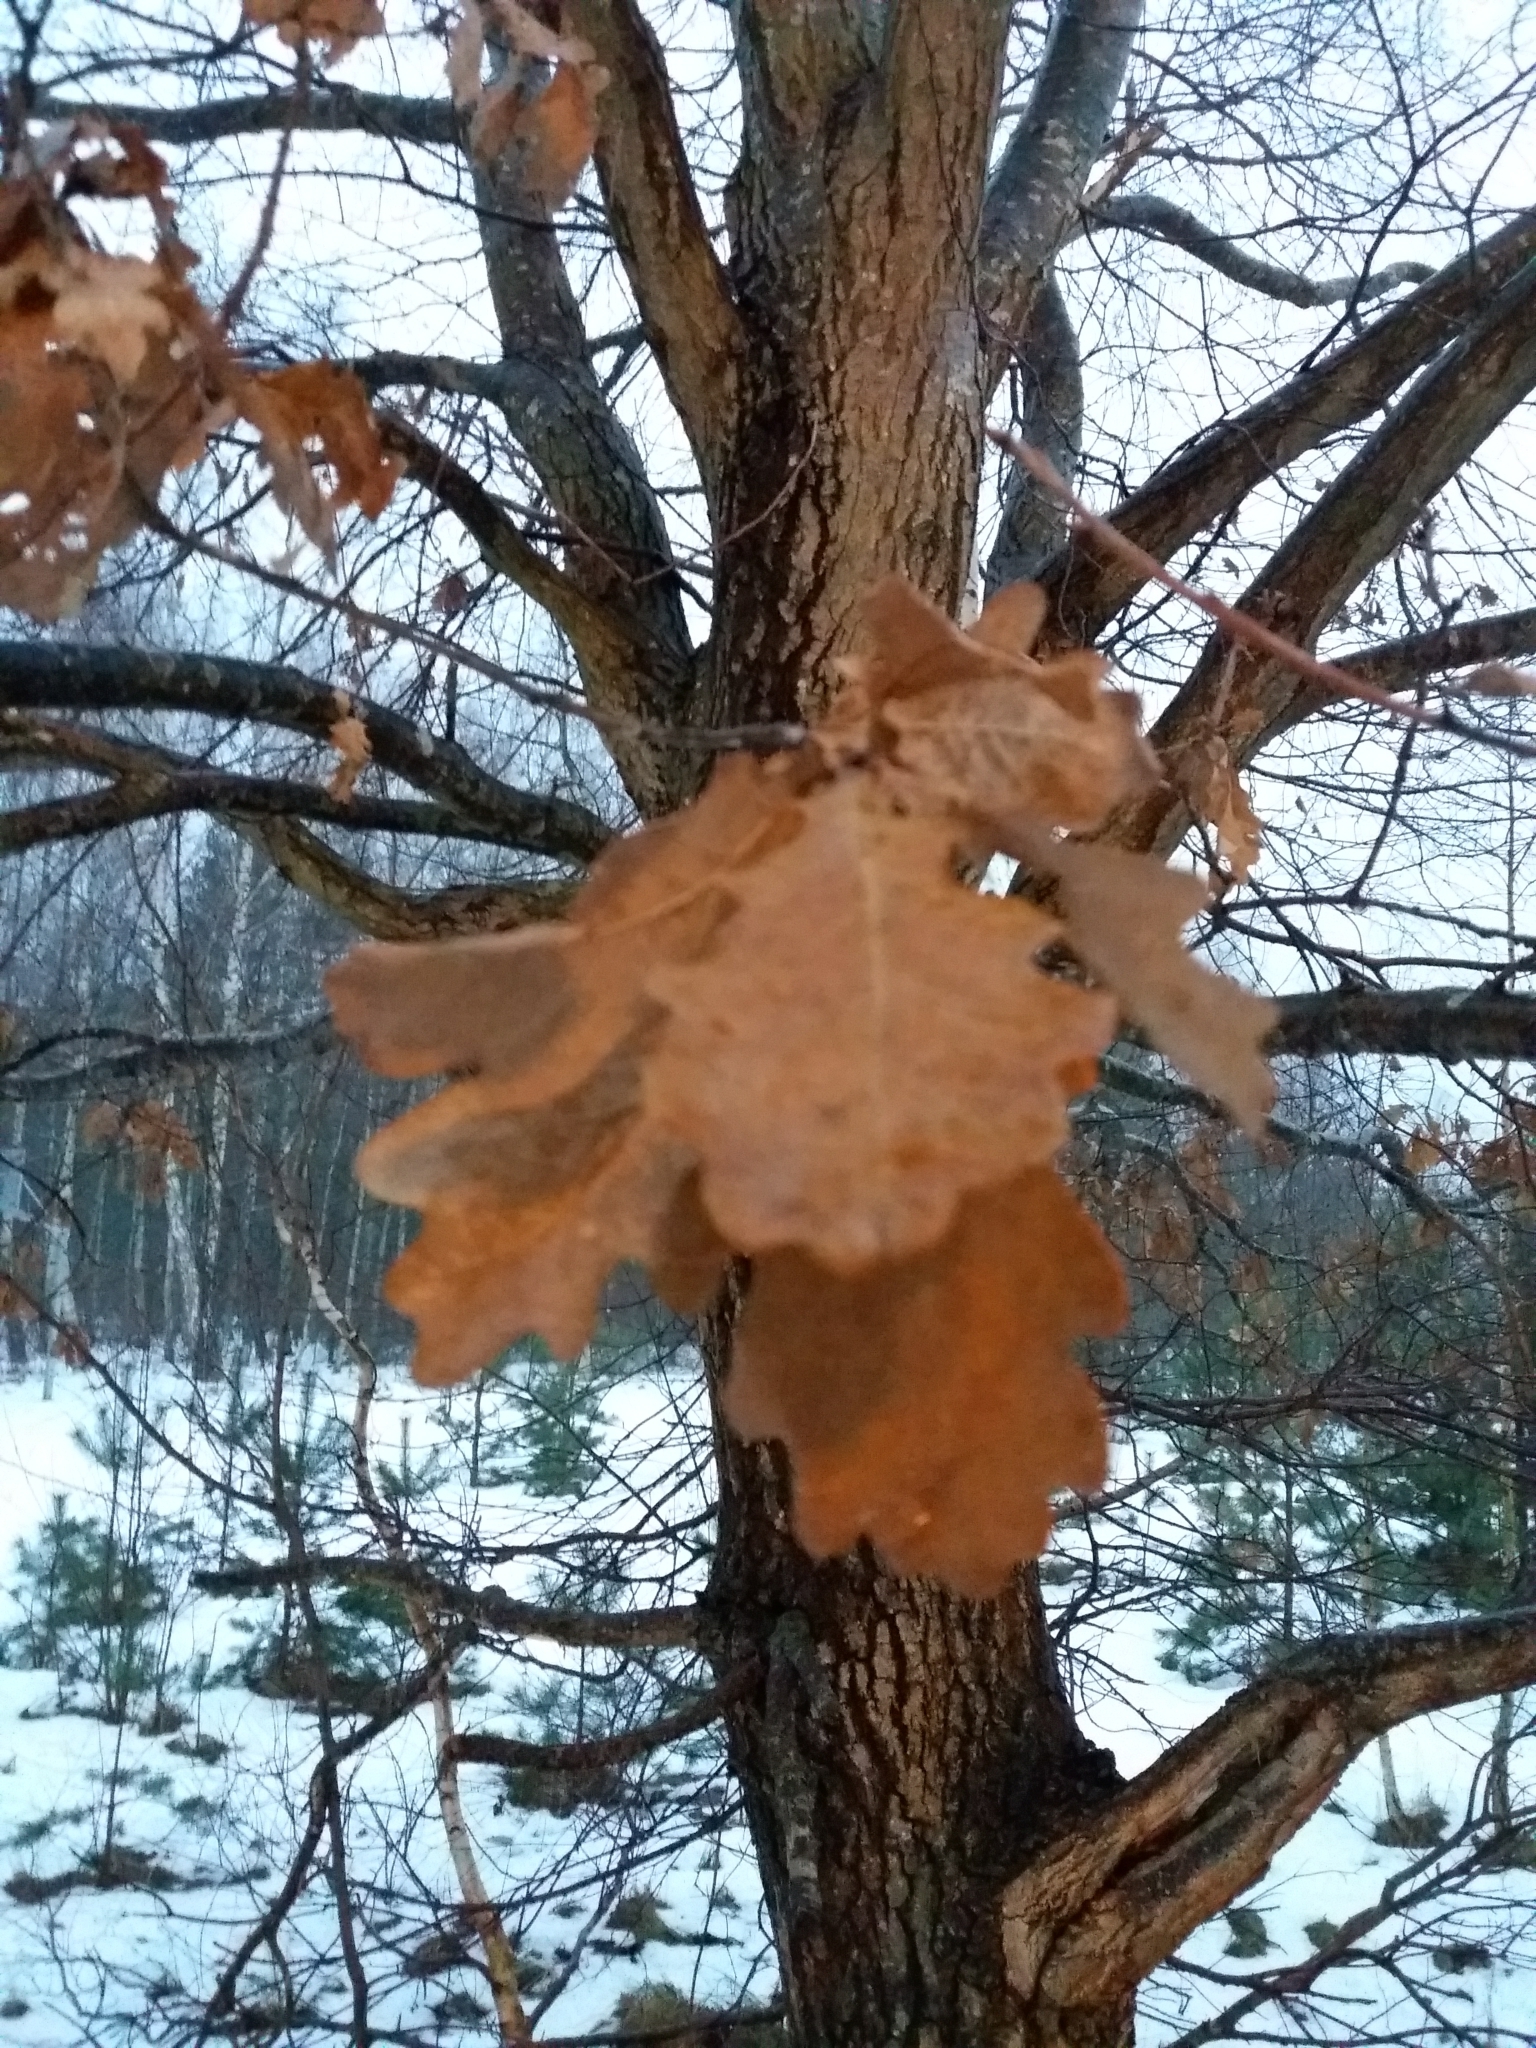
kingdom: Plantae
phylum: Tracheophyta
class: Magnoliopsida
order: Fagales
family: Fagaceae
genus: Quercus
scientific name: Quercus robur
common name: Pedunculate oak
